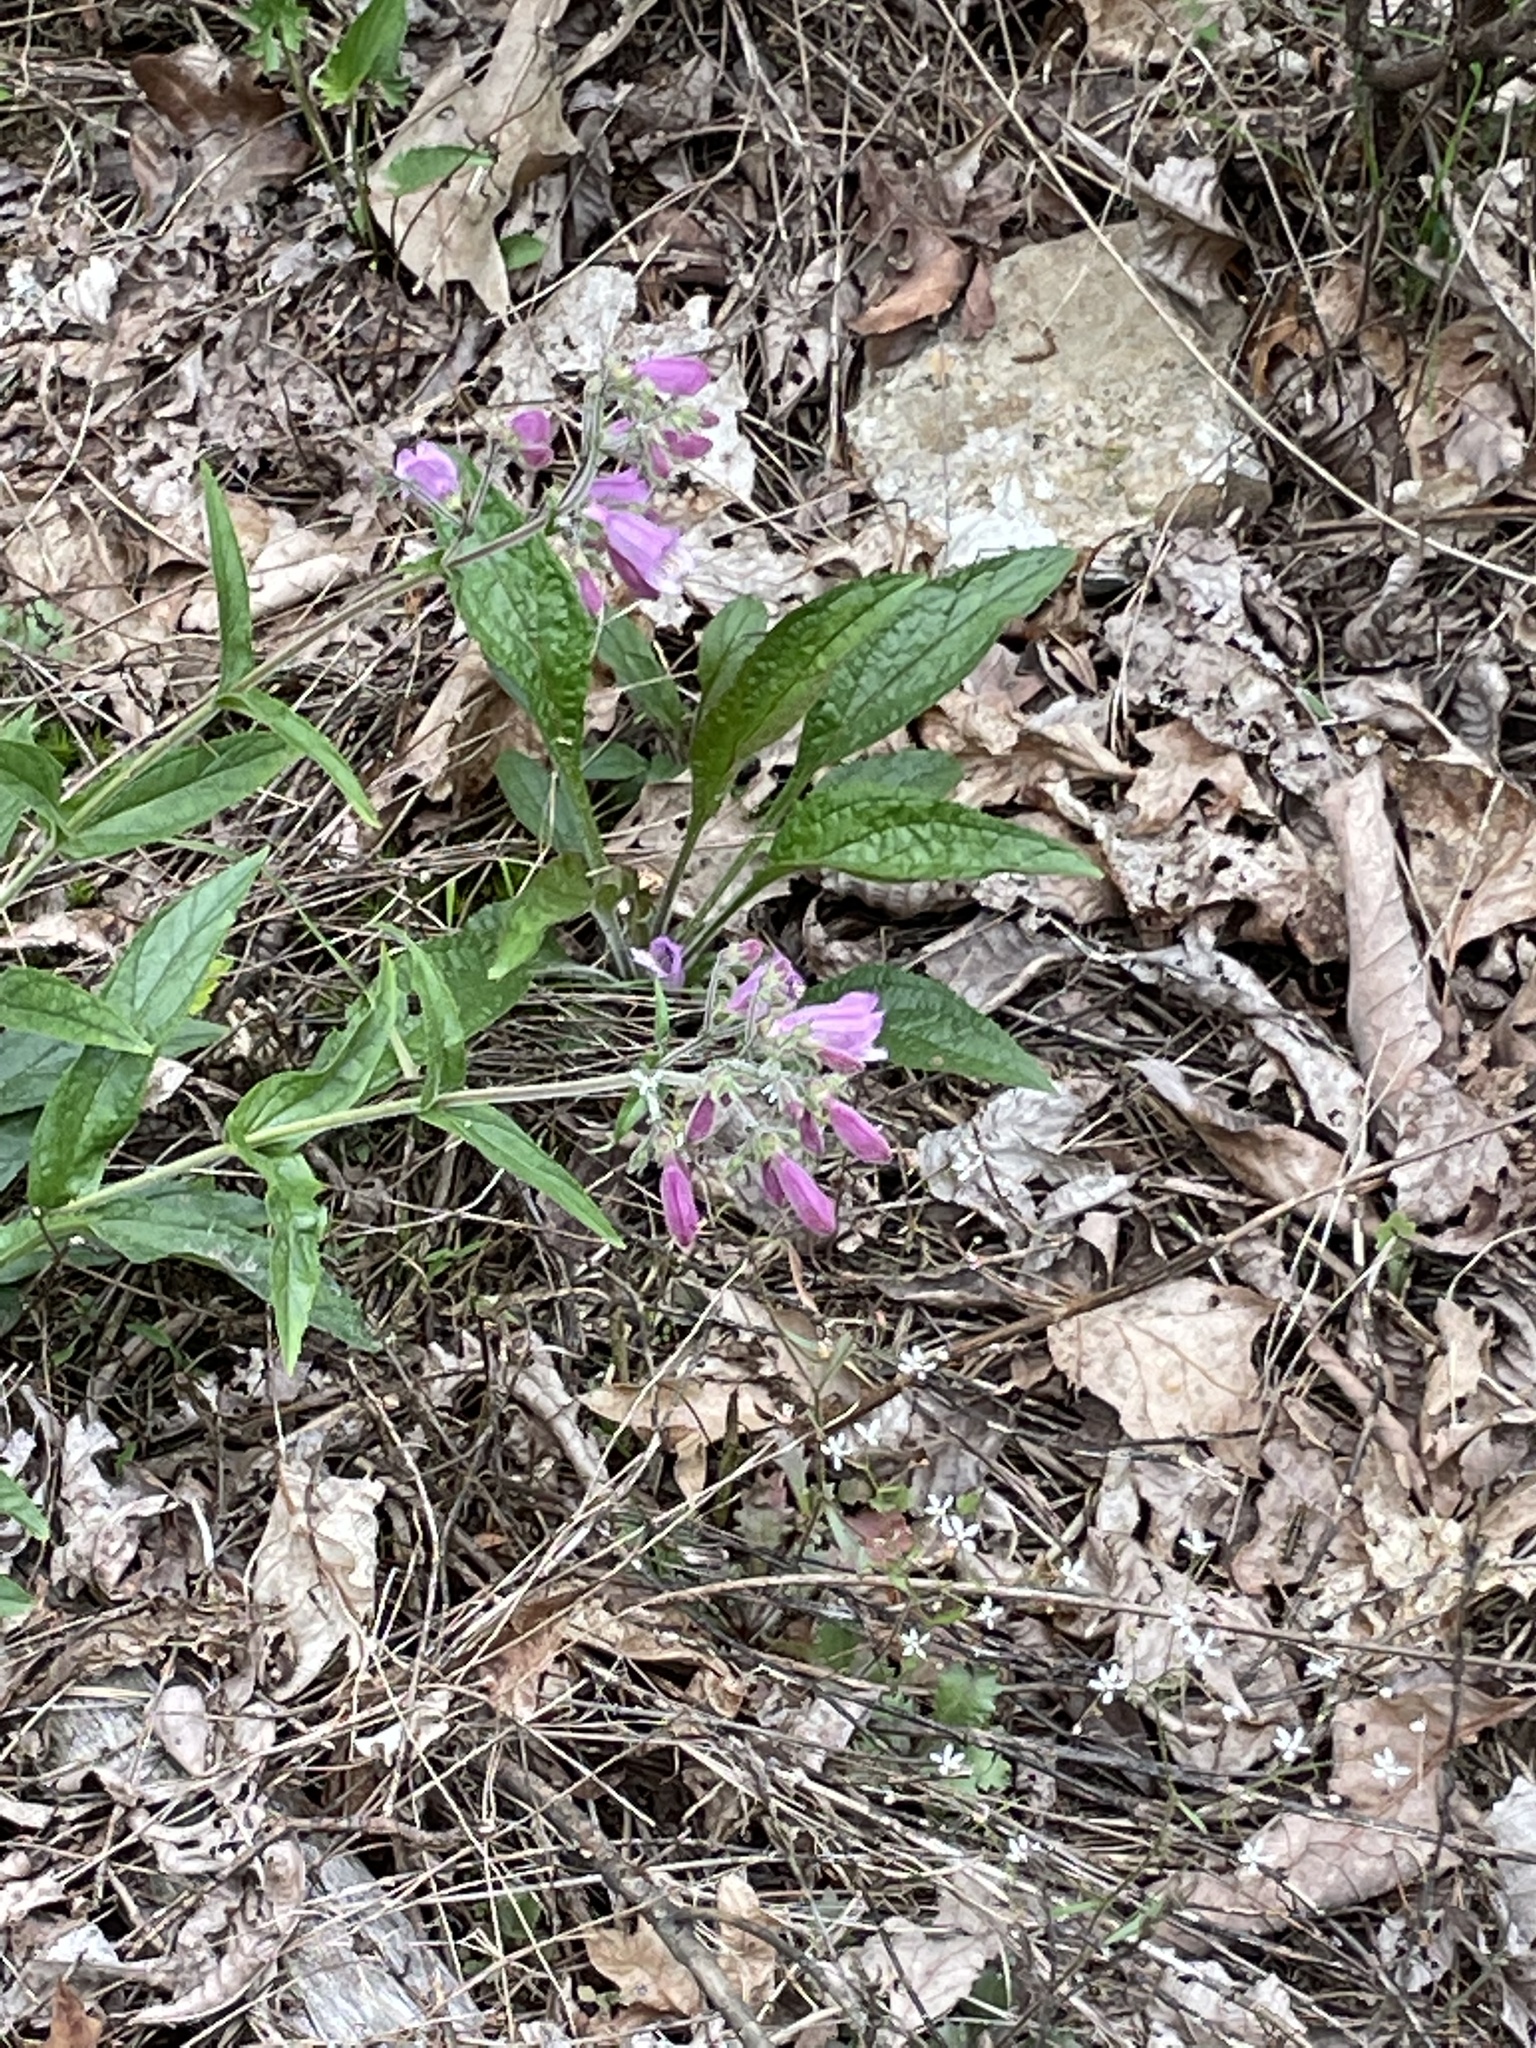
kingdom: Plantae
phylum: Tracheophyta
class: Magnoliopsida
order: Lamiales
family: Plantaginaceae
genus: Penstemon
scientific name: Penstemon smallii
